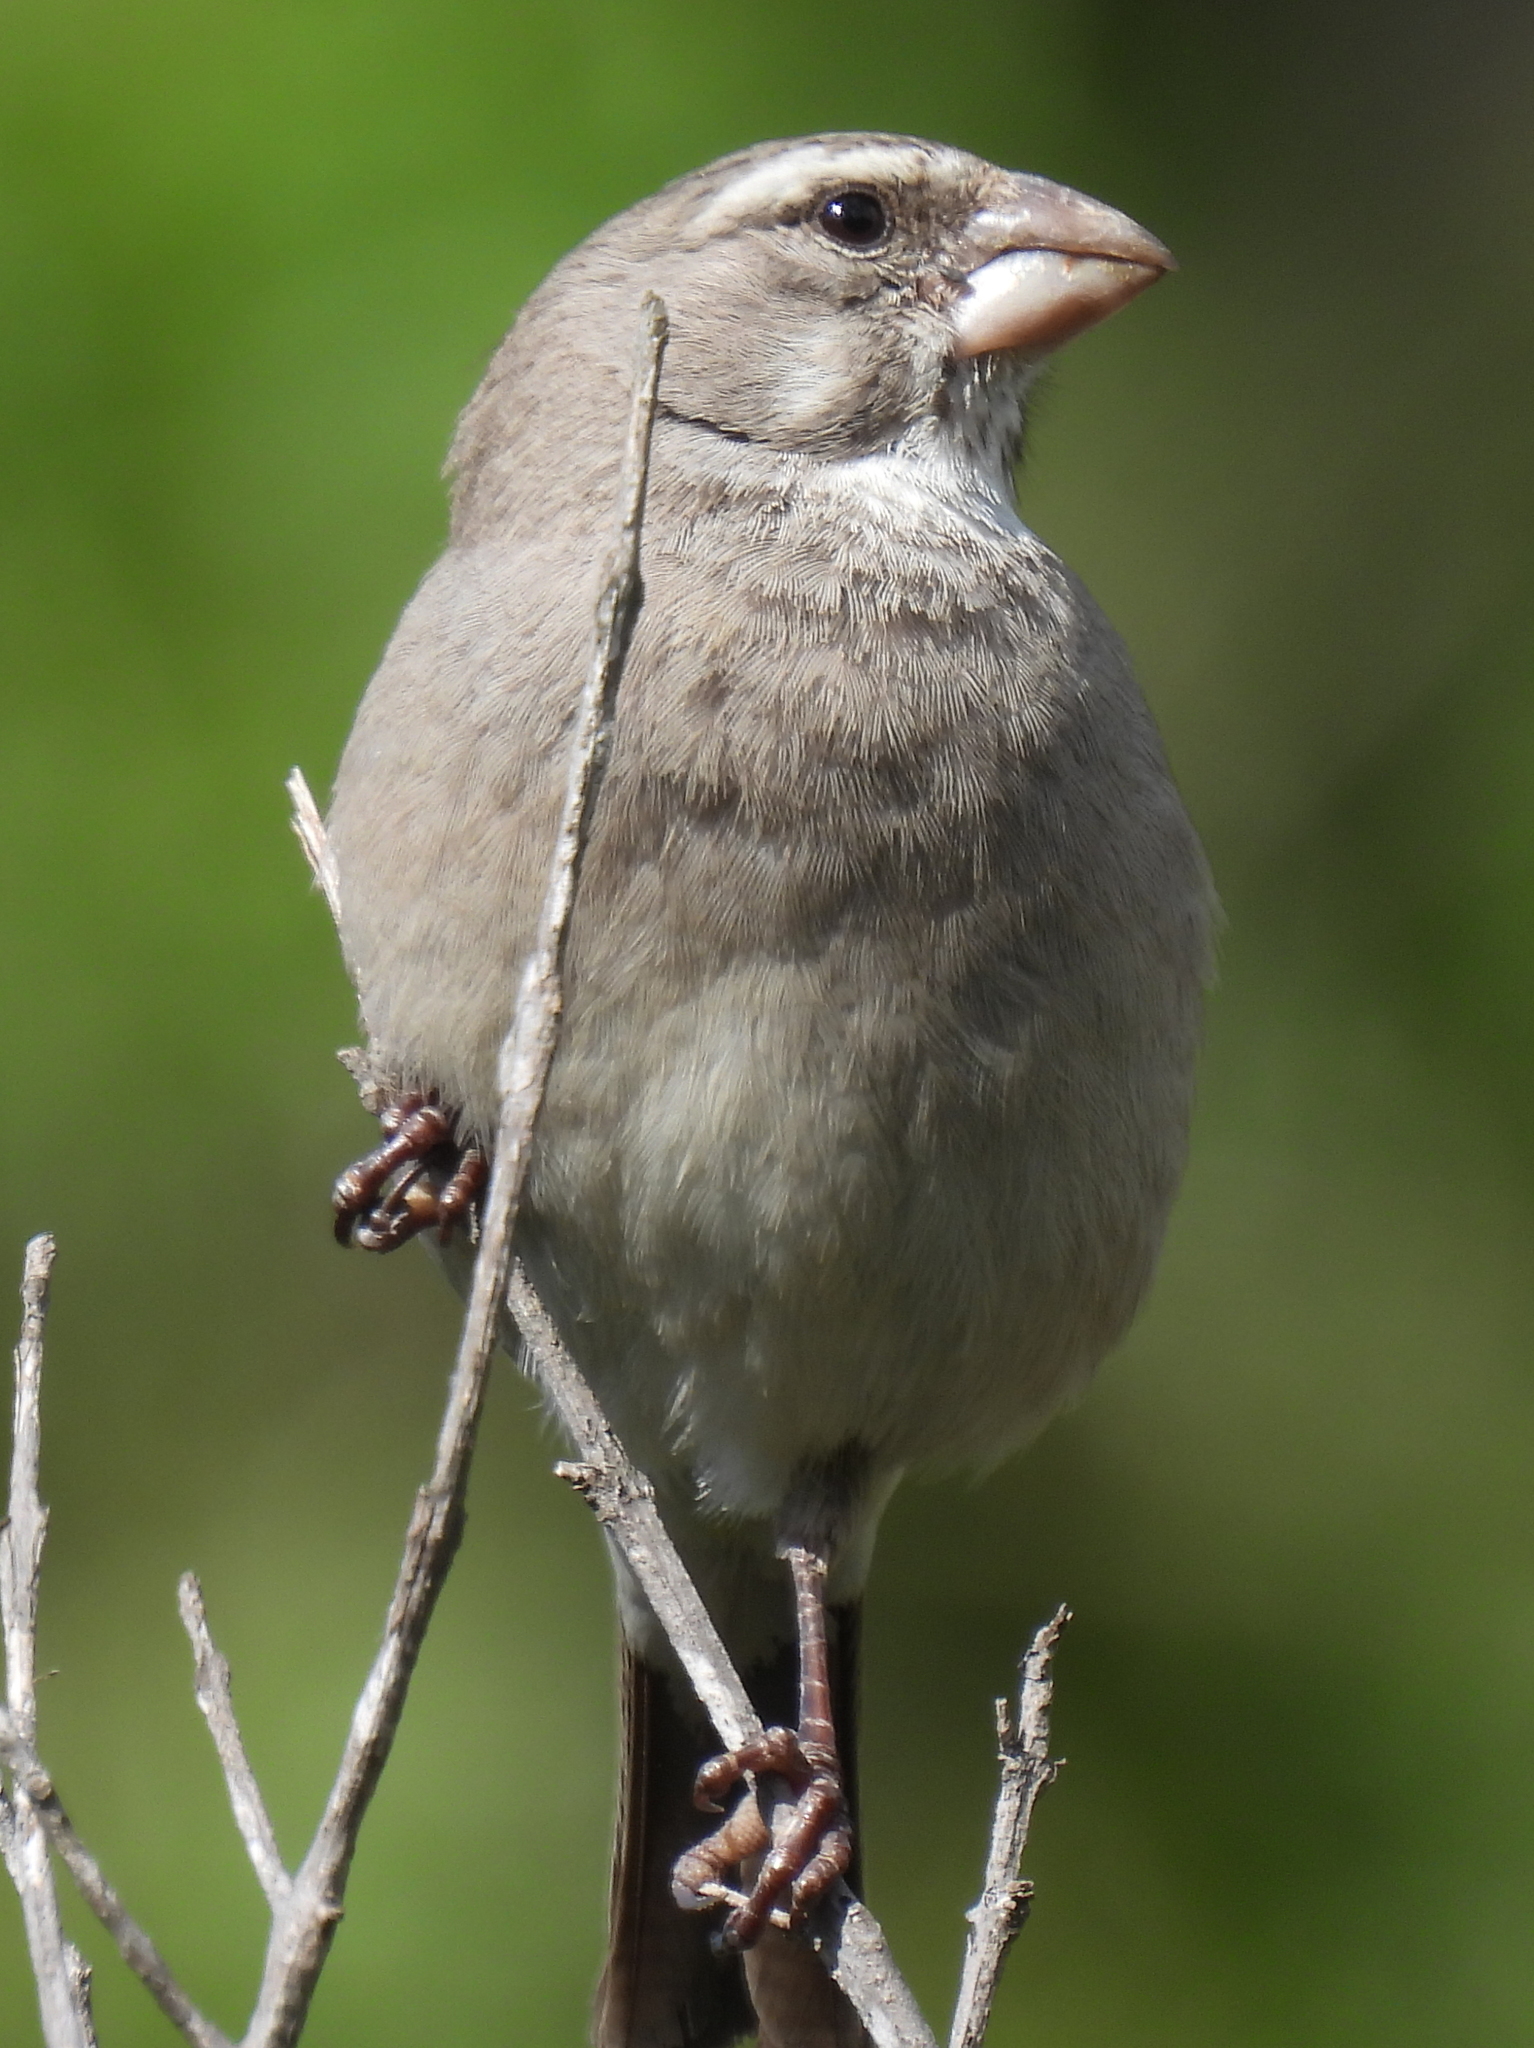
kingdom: Animalia
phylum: Chordata
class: Aves
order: Passeriformes
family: Fringillidae
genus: Crithagra
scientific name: Crithagra albogularis
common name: White-throated canary
